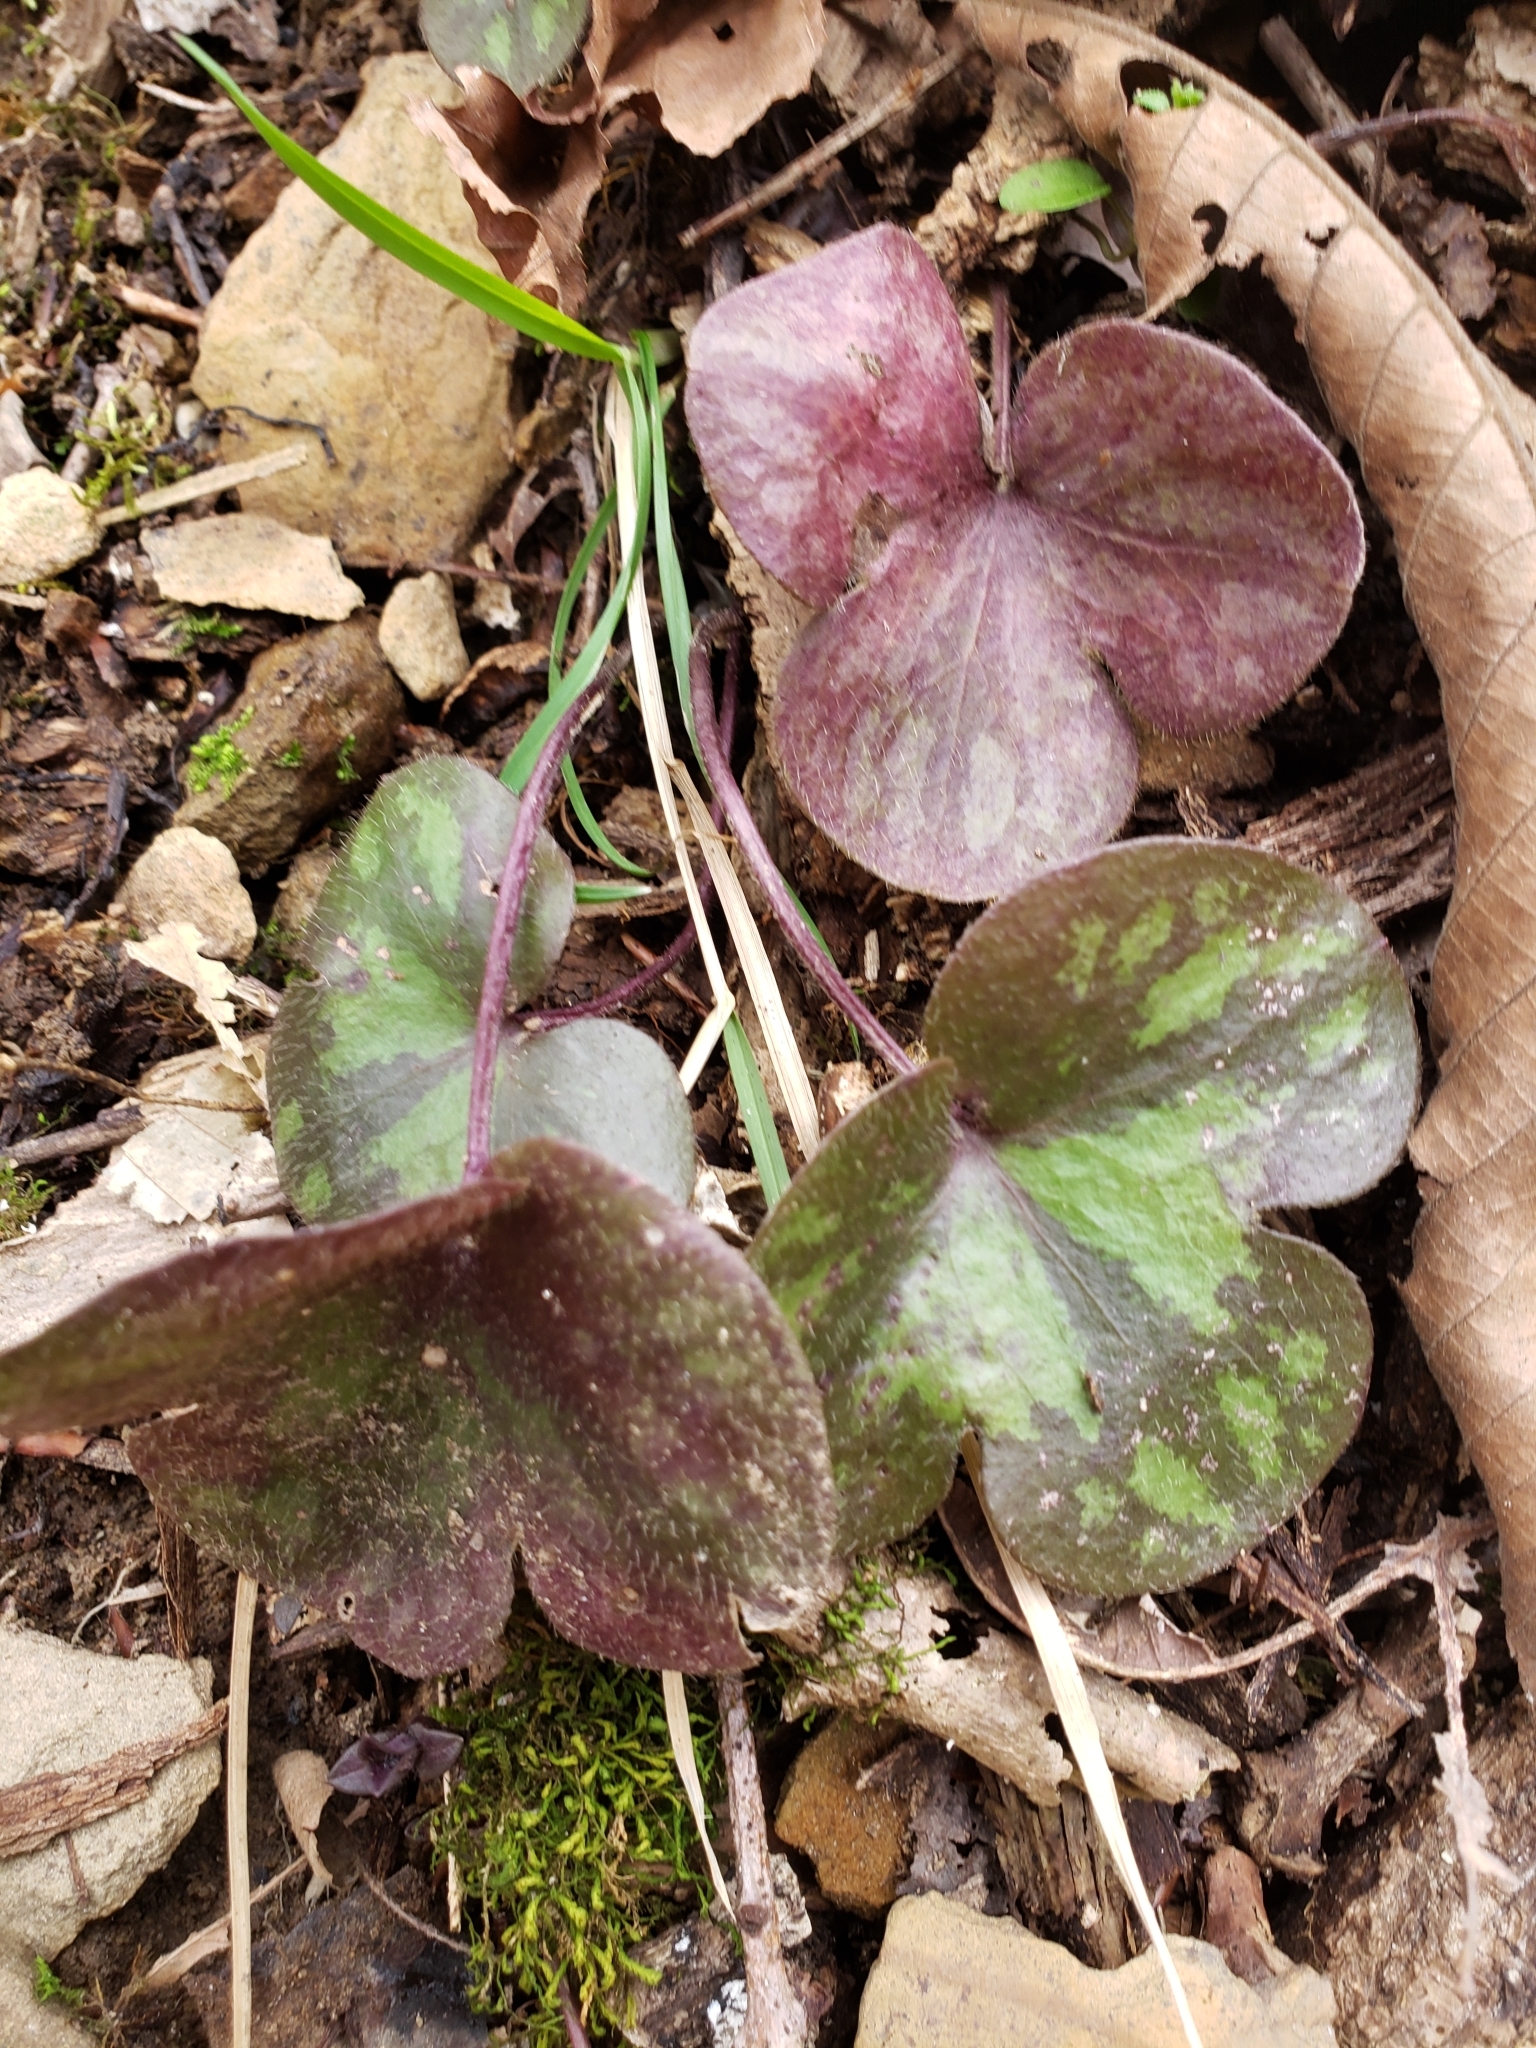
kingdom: Plantae
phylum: Tracheophyta
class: Magnoliopsida
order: Ranunculales
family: Ranunculaceae
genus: Hepatica
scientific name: Hepatica americana
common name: American hepatica
